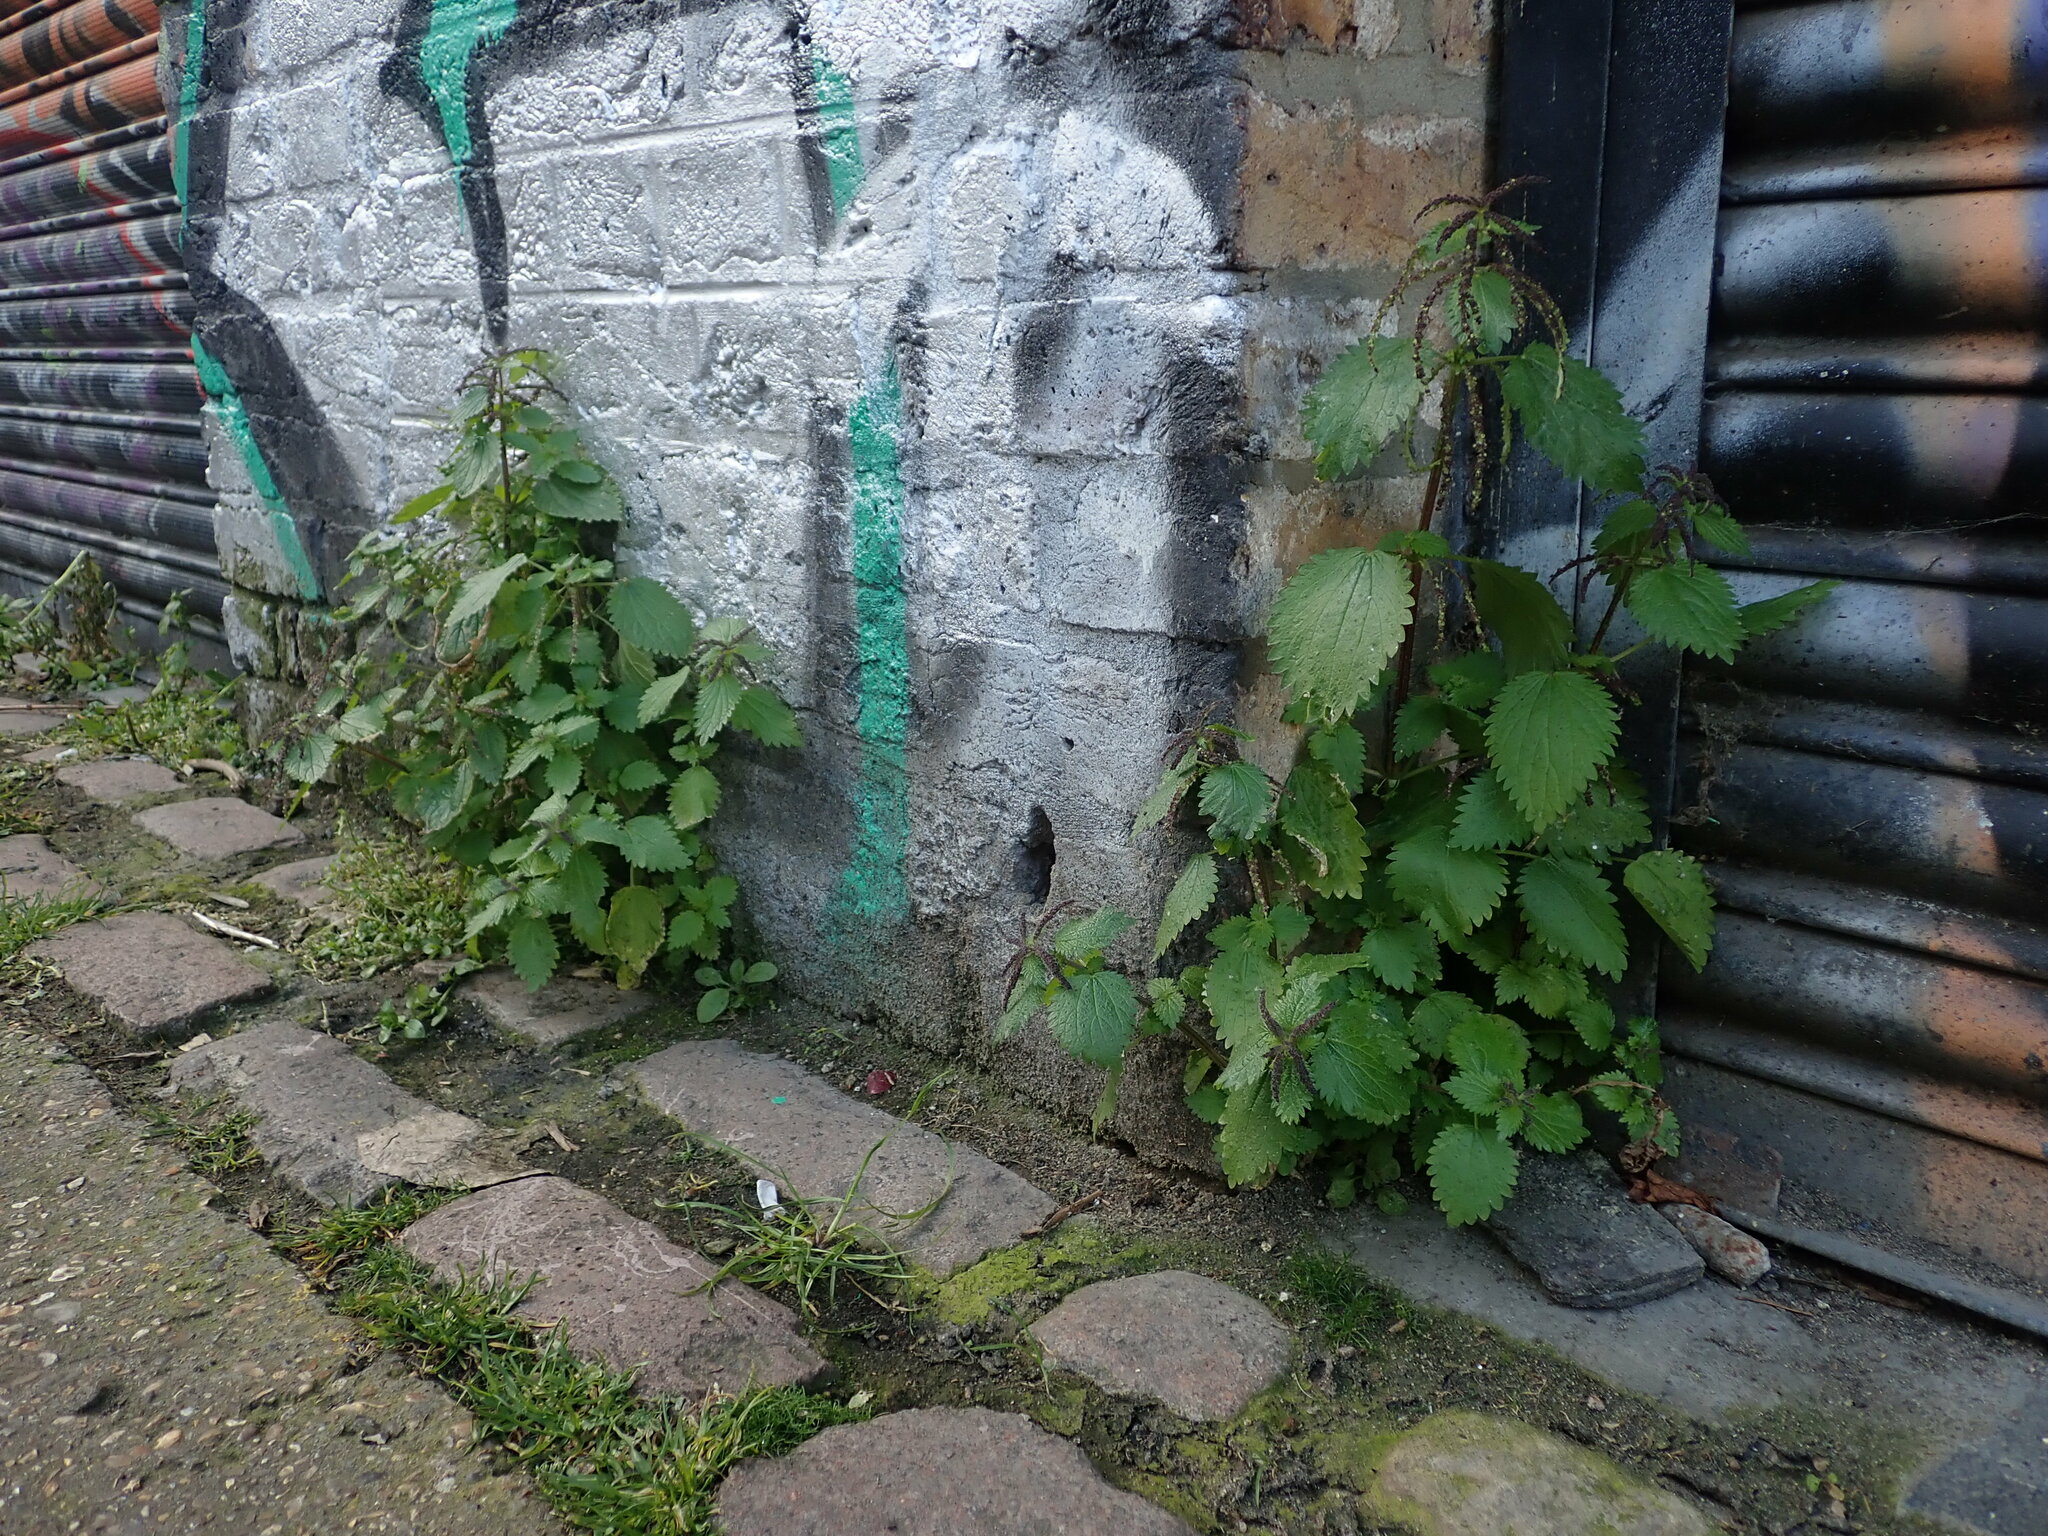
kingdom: Plantae
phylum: Tracheophyta
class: Magnoliopsida
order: Rosales
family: Urticaceae
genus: Urtica
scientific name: Urtica membranacea
